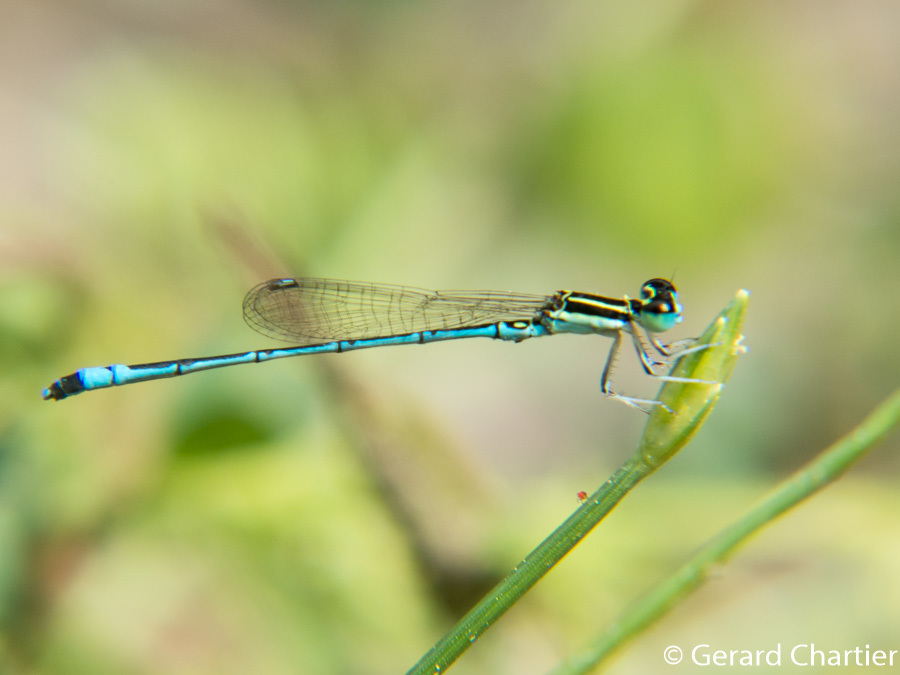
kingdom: Animalia
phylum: Arthropoda
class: Insecta
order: Odonata
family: Coenagrionidae
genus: Agriocnemis
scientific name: Agriocnemis nana
